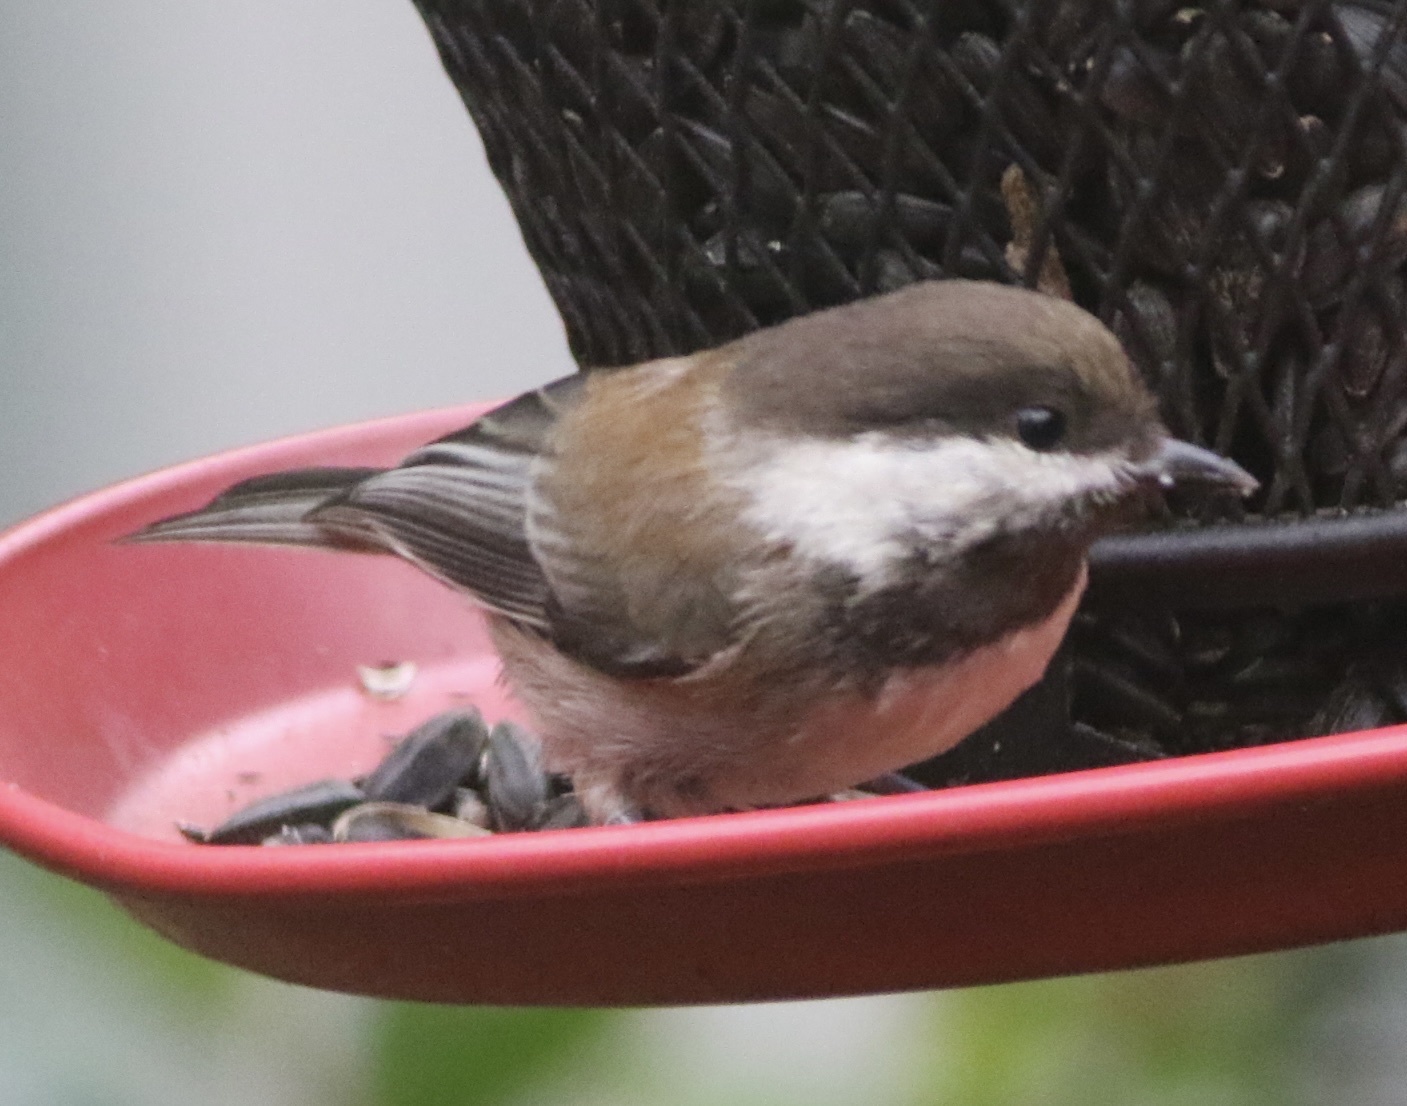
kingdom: Animalia
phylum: Chordata
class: Aves
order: Passeriformes
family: Paridae
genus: Poecile
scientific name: Poecile rufescens
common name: Chestnut-backed chickadee
